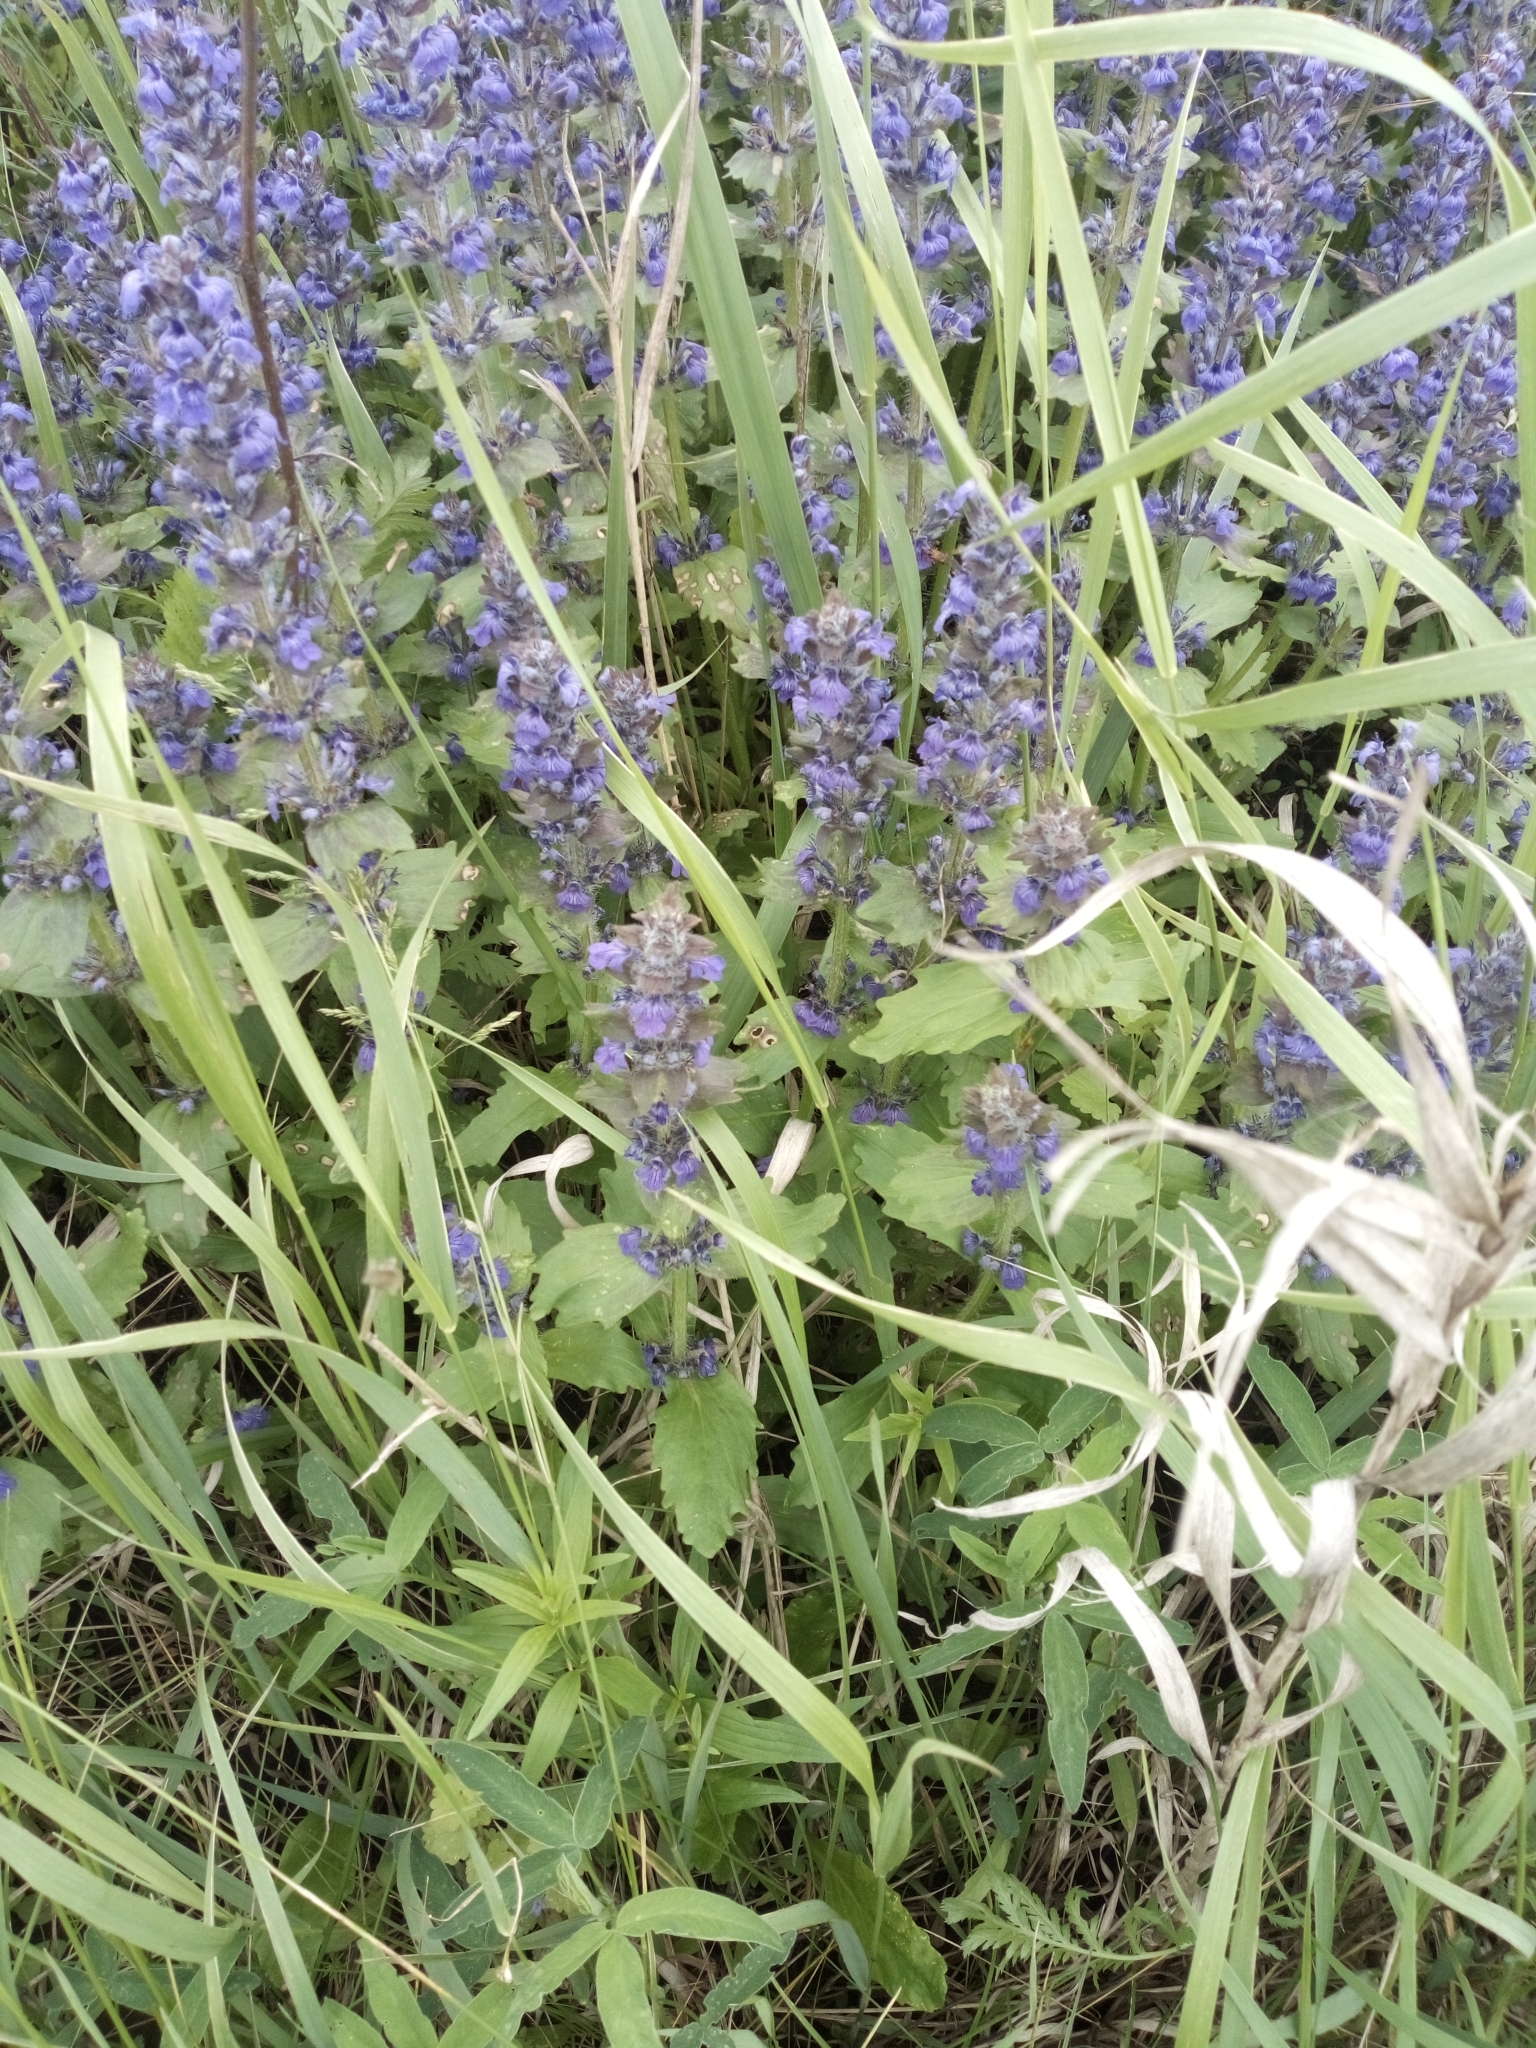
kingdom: Plantae
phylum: Tracheophyta
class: Magnoliopsida
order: Lamiales
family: Lamiaceae
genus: Ajuga
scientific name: Ajuga genevensis
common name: Blue bugle
